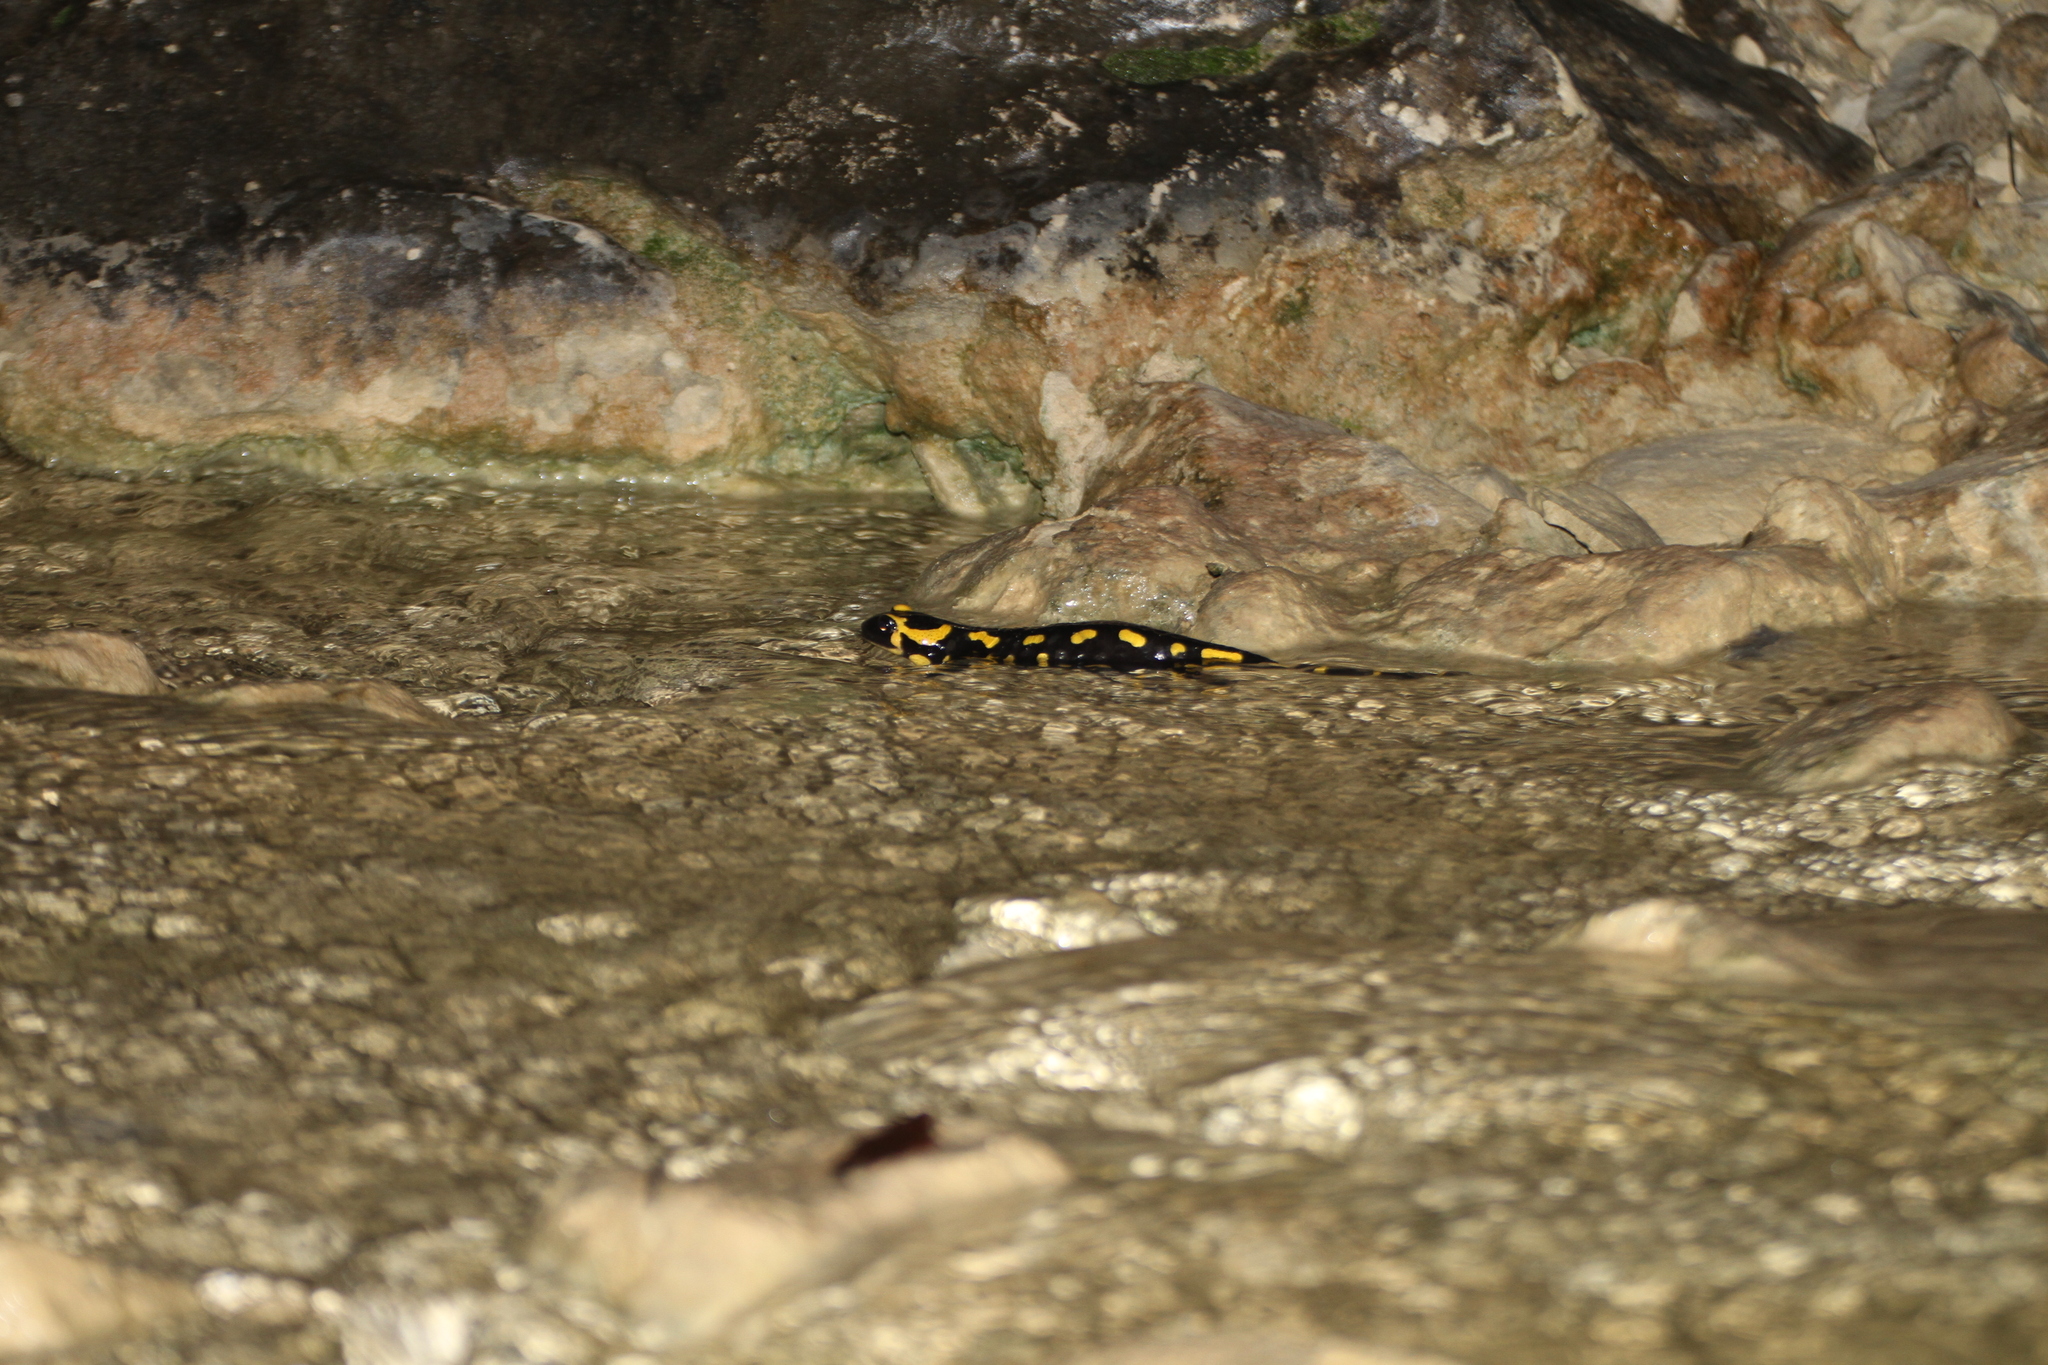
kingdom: Animalia
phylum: Chordata
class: Amphibia
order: Caudata
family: Salamandridae
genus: Salamandra
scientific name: Salamandra salamandra
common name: Fire salamander
